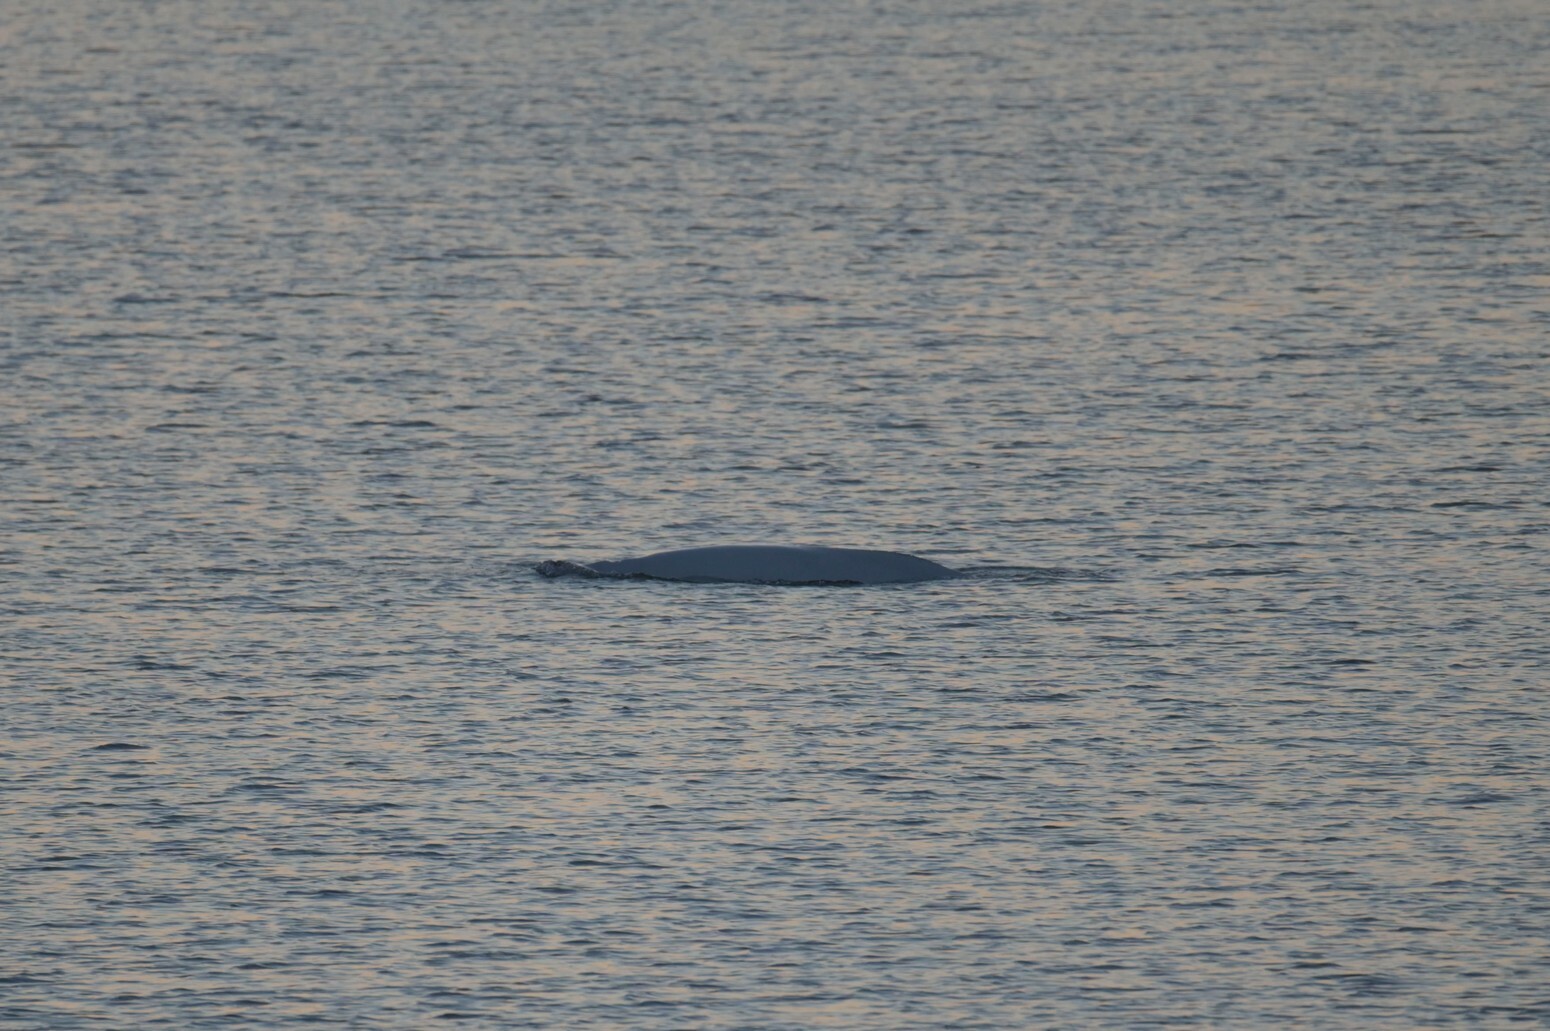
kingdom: Animalia
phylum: Chordata
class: Mammalia
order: Cetacea
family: Monodontidae
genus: Delphinapterus
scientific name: Delphinapterus leucas
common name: Beluga
